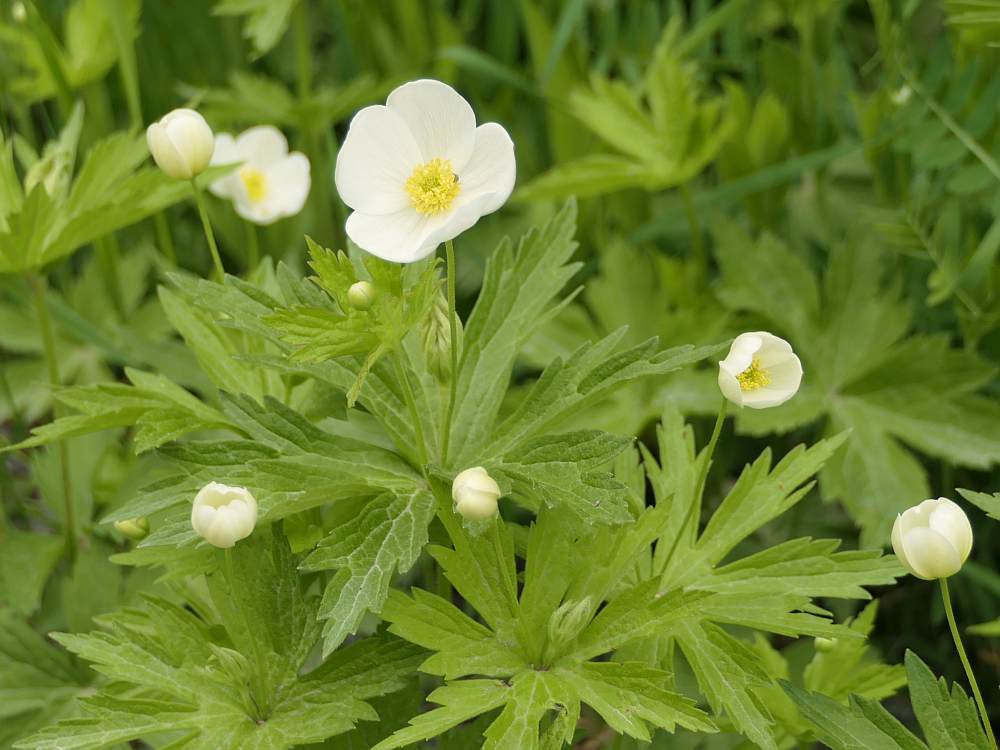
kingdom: Plantae
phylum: Tracheophyta
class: Magnoliopsida
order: Ranunculales
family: Ranunculaceae
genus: Anemonastrum
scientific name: Anemonastrum canadense
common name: Canada anemone
